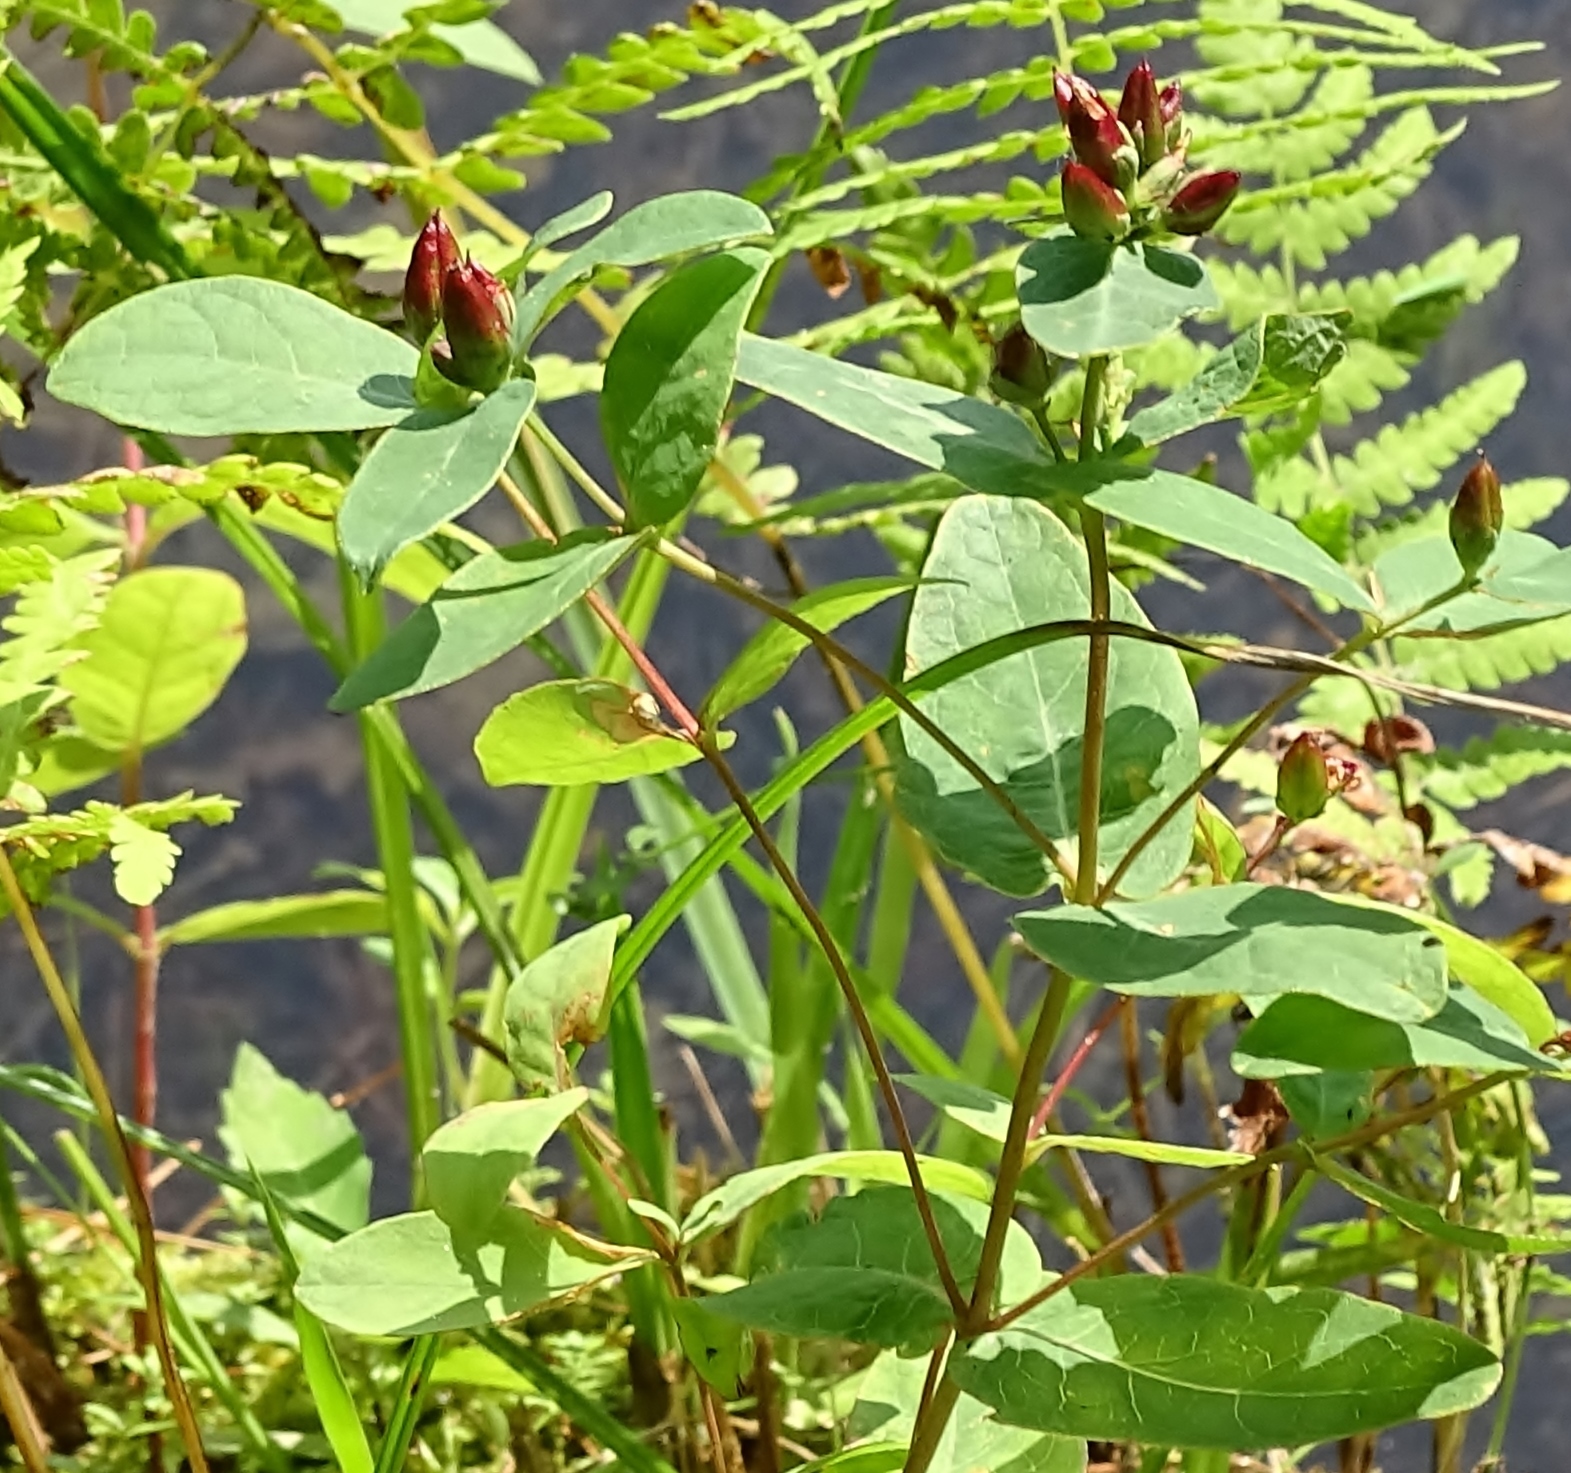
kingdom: Plantae
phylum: Tracheophyta
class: Magnoliopsida
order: Malpighiales
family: Hypericaceae
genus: Triadenum
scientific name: Triadenum virginicum
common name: Marsh st. john's-wort
